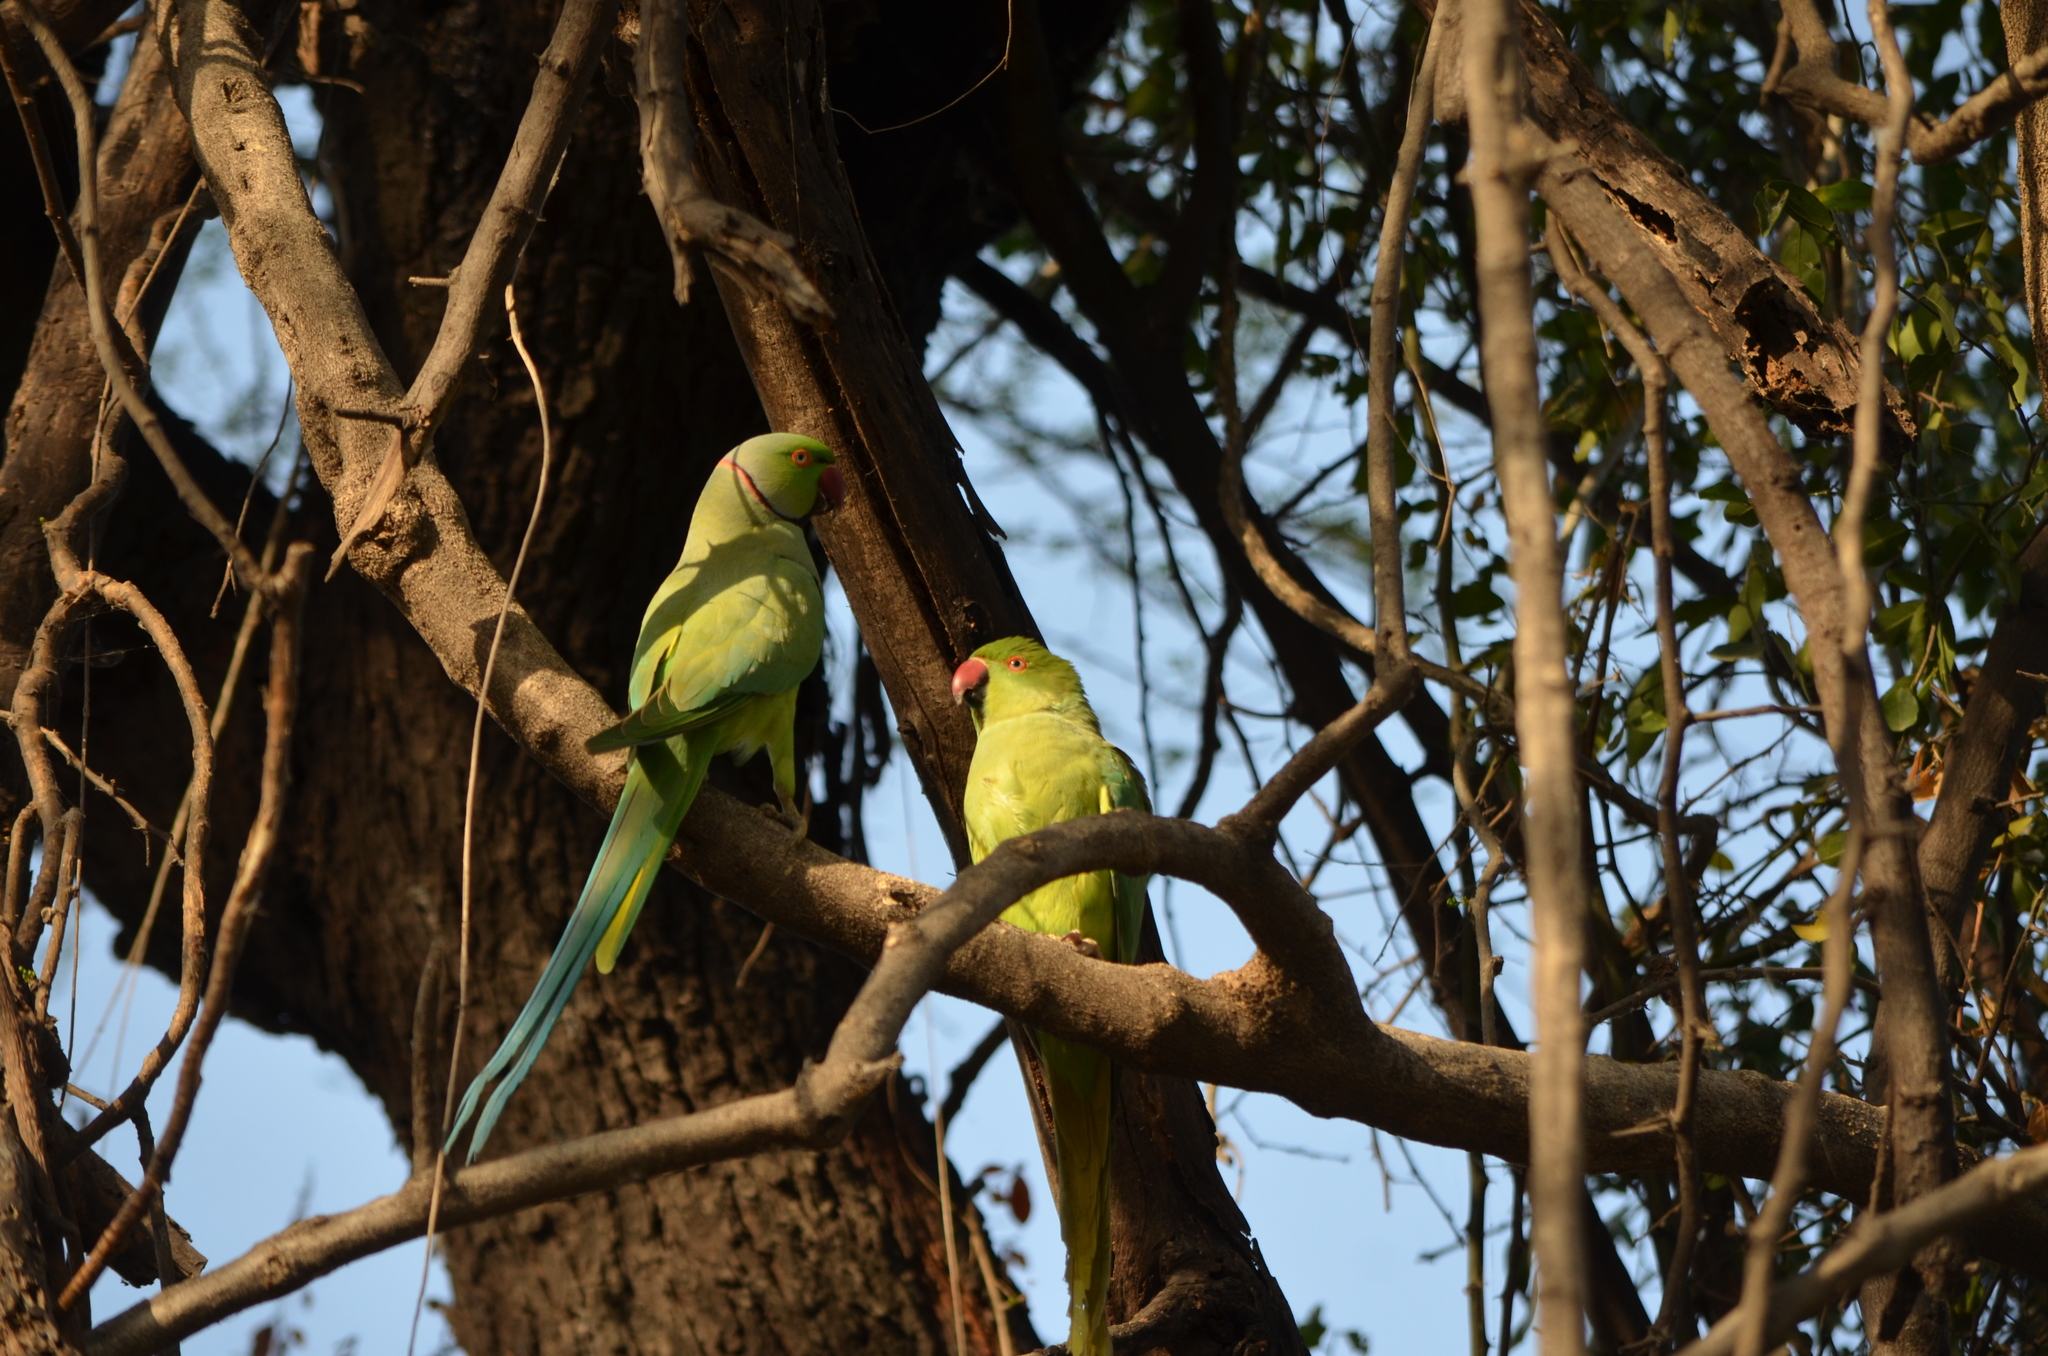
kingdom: Animalia
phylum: Chordata
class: Aves
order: Psittaciformes
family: Psittacidae
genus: Psittacula
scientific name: Psittacula krameri
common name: Rose-ringed parakeet
